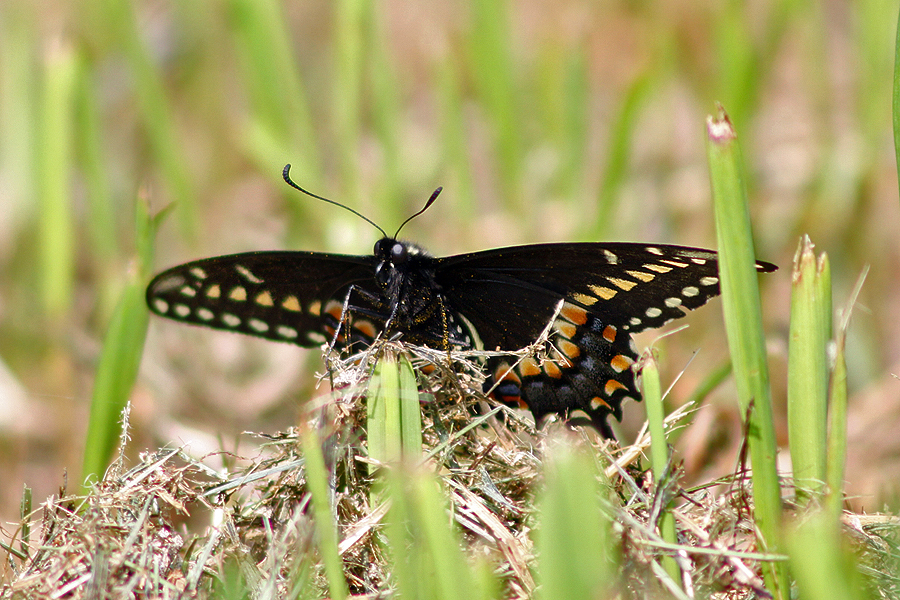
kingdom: Animalia
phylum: Arthropoda
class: Insecta
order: Lepidoptera
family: Papilionidae
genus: Papilio
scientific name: Papilio polyxenes
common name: Black swallowtail
